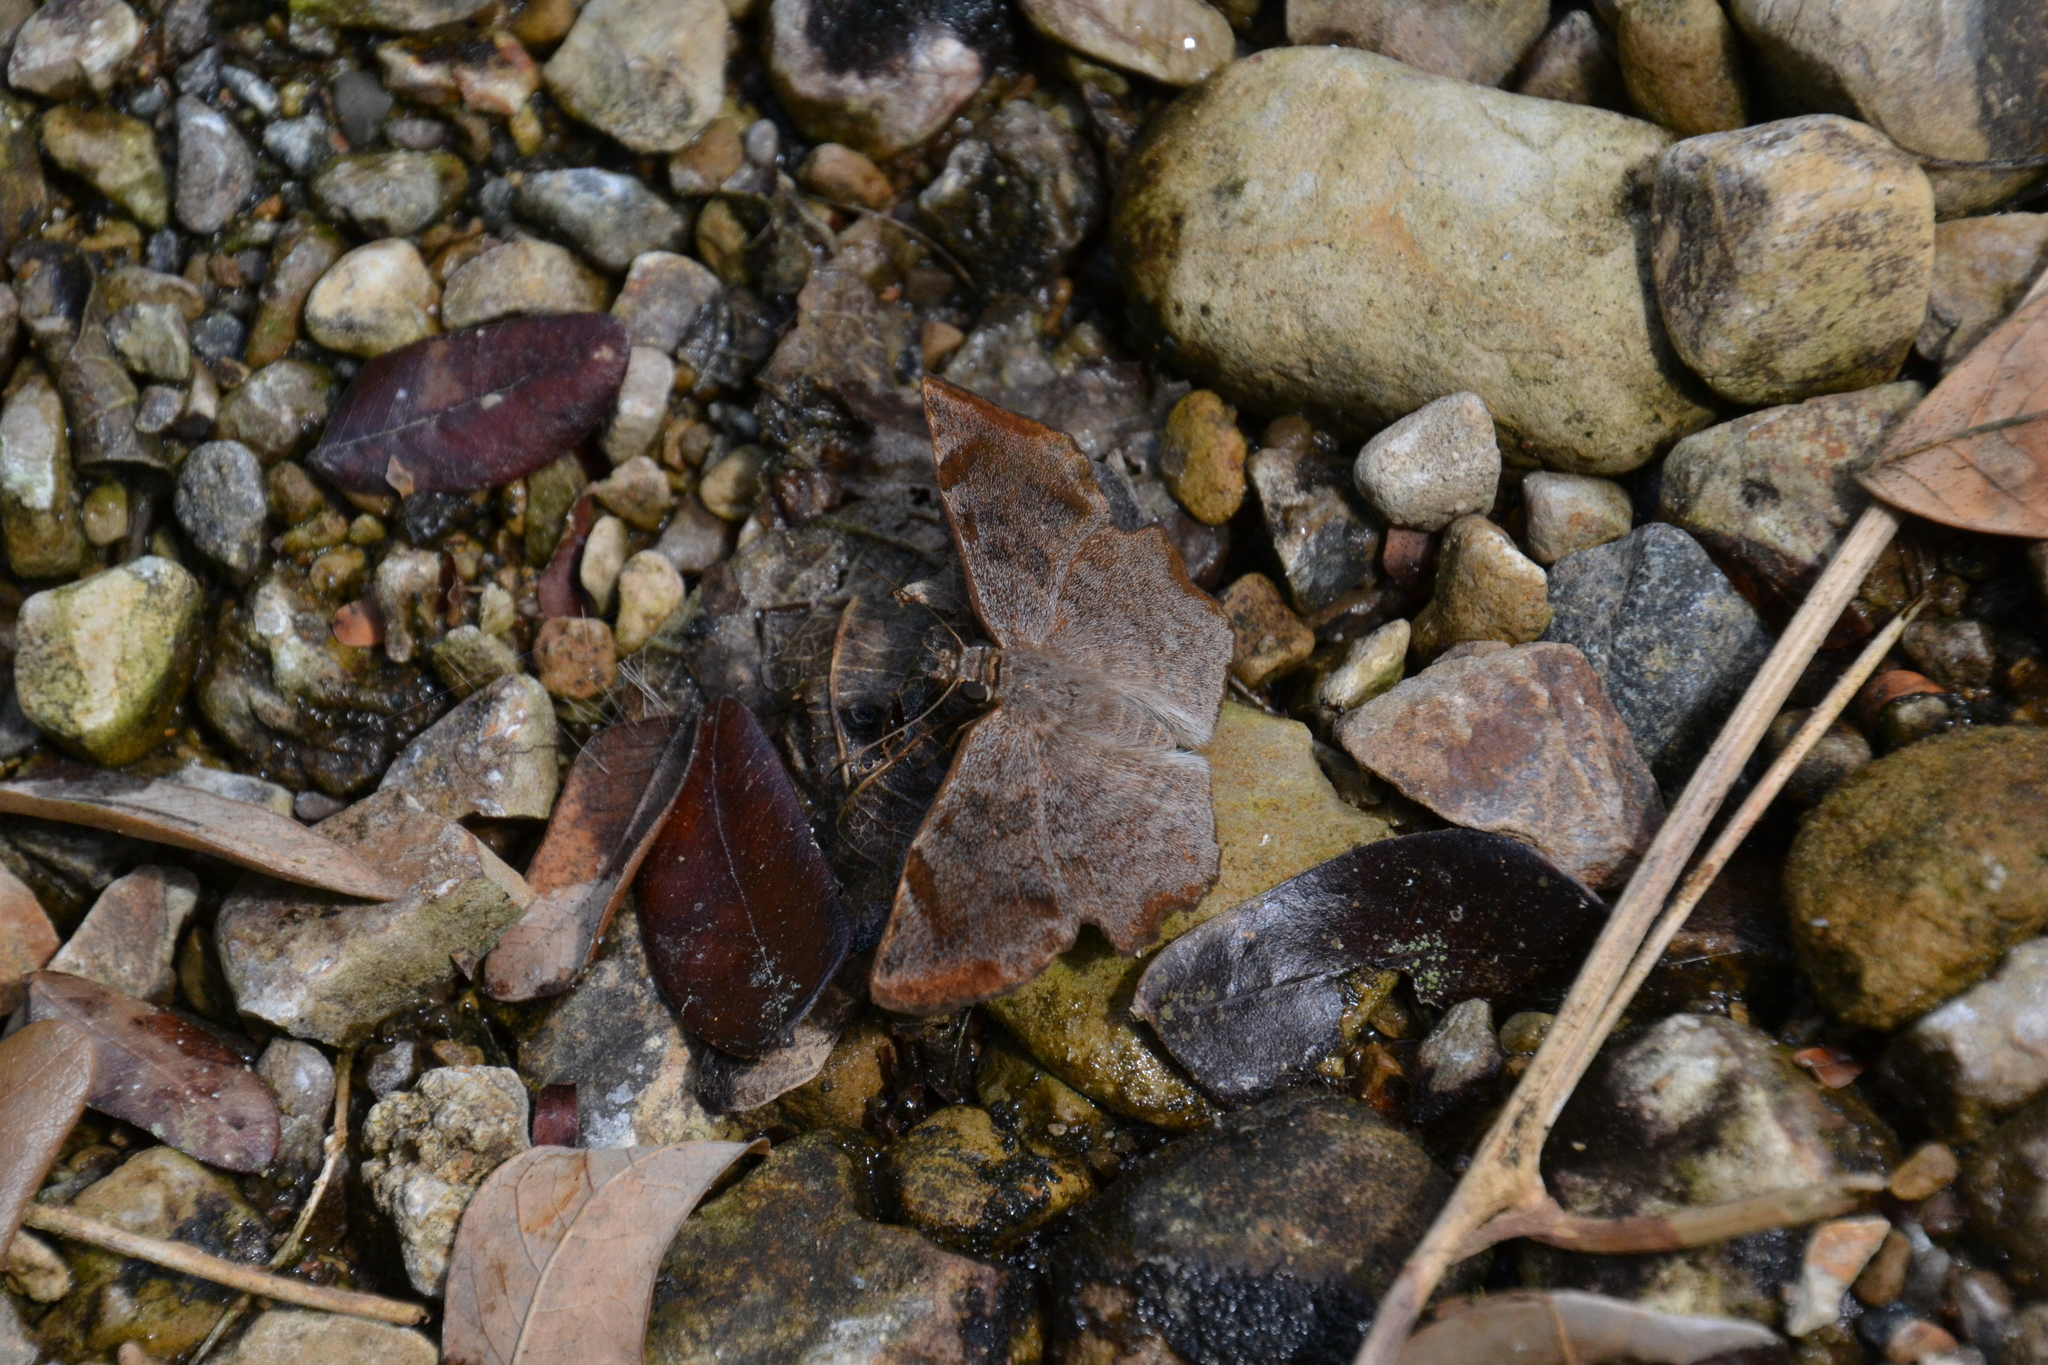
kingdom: Animalia
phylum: Arthropoda
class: Insecta
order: Lepidoptera
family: Hesperiidae
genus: Antigonus
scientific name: Antigonus erosus
